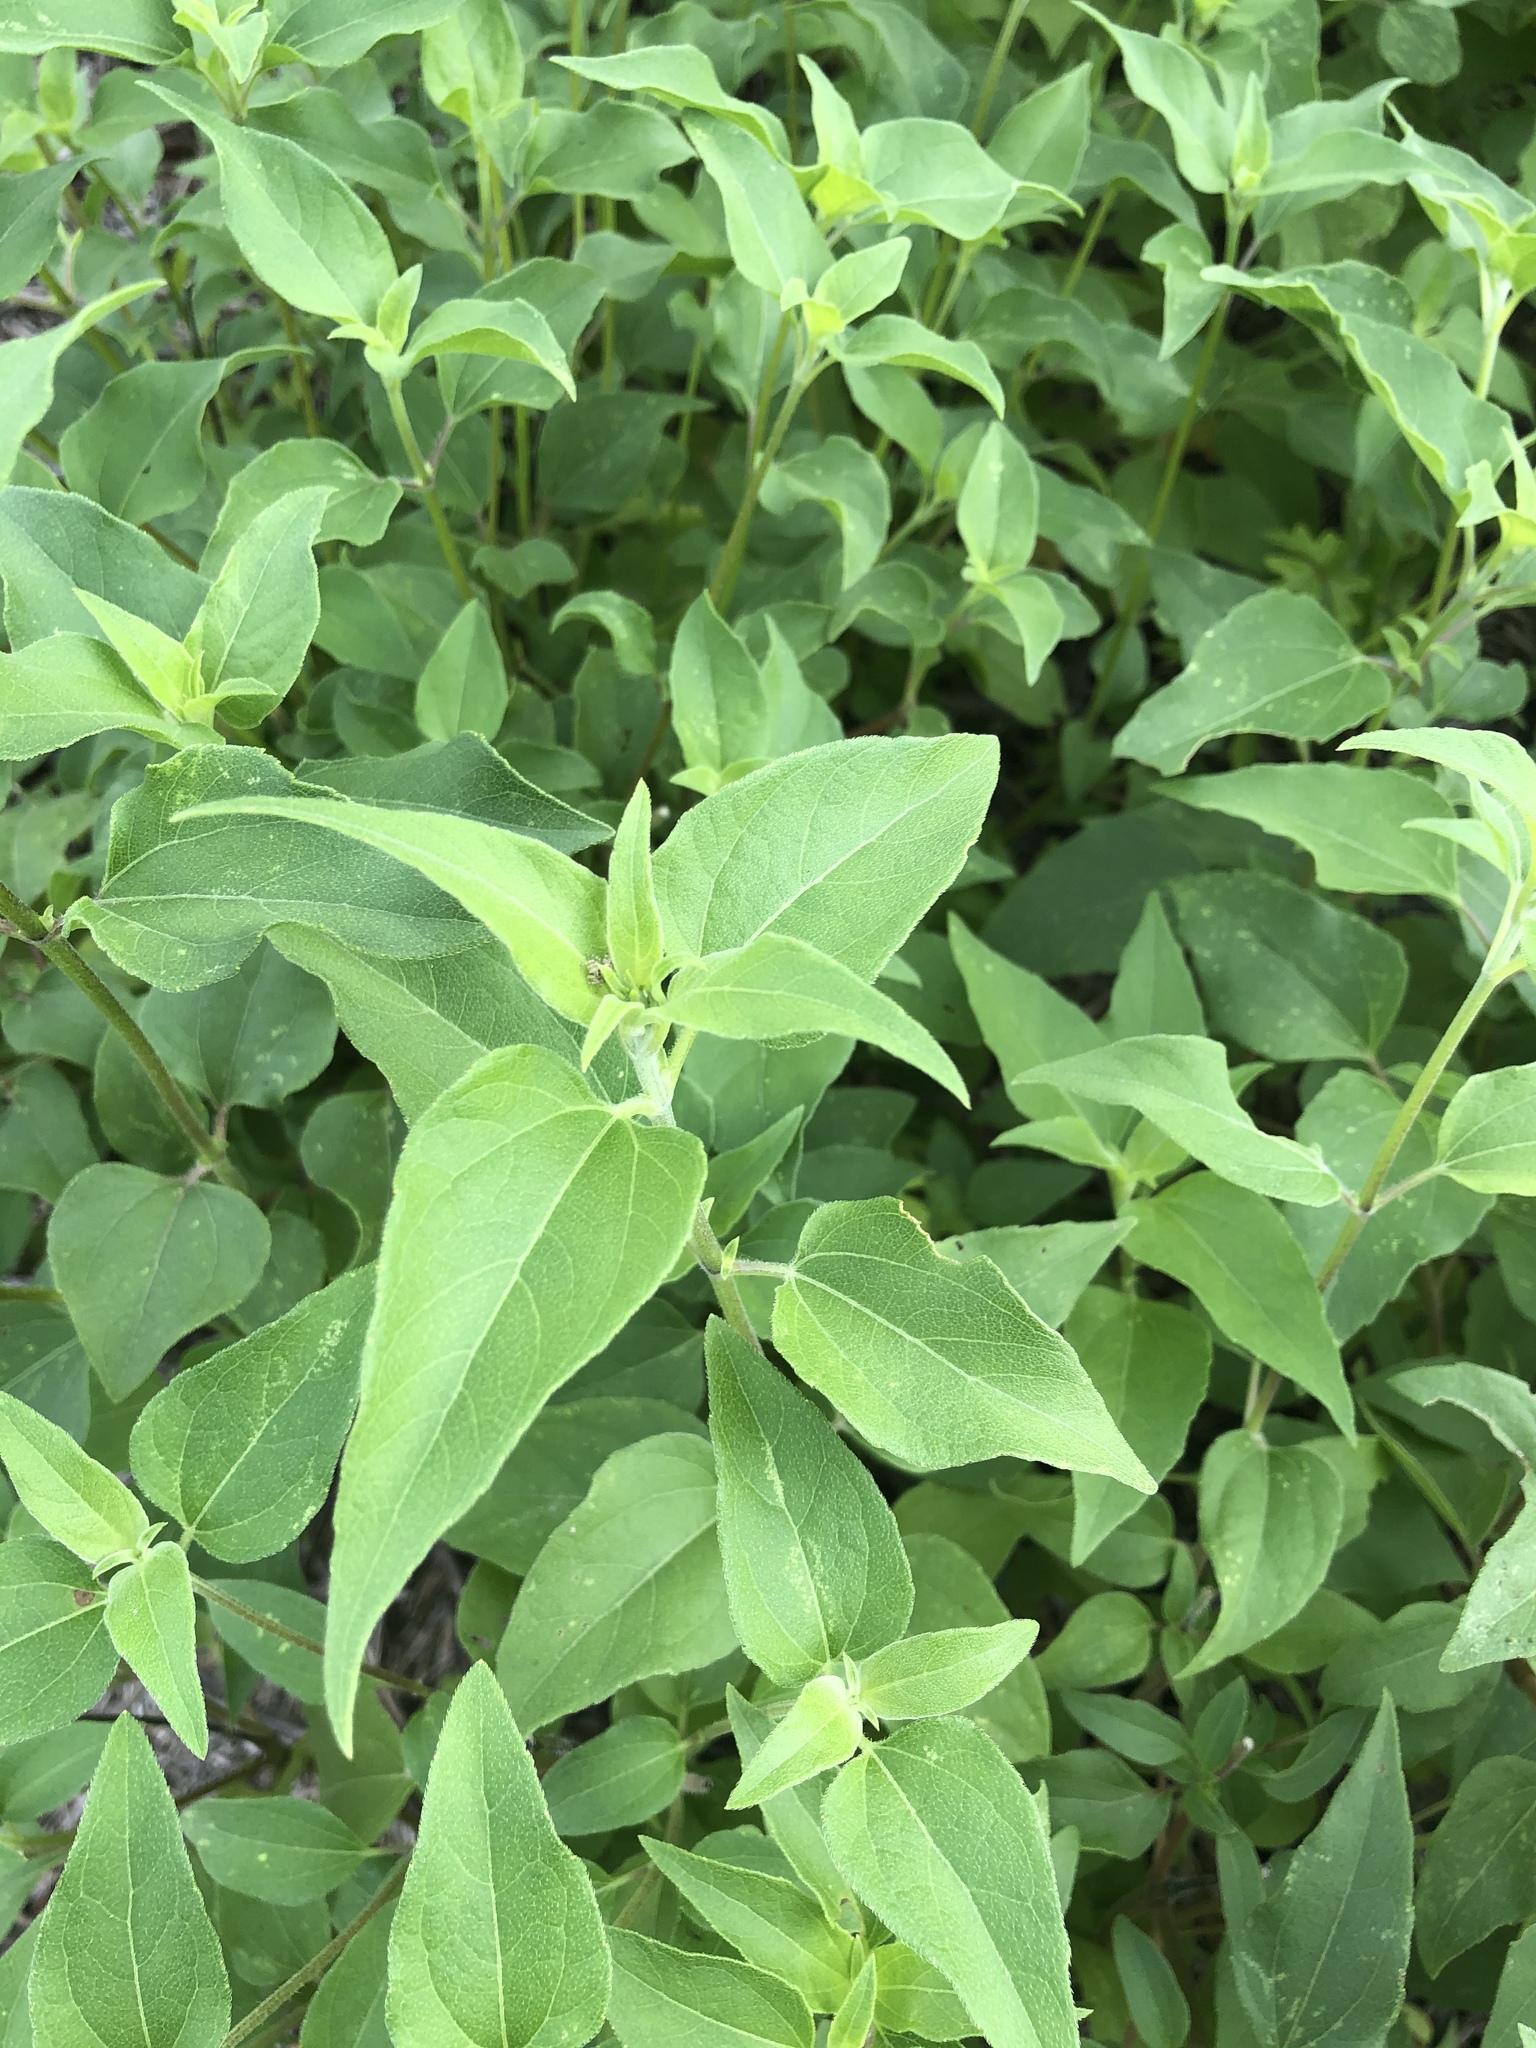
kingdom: Plantae
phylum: Tracheophyta
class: Magnoliopsida
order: Asterales
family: Asteraceae
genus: Viguiera
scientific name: Viguiera dentata
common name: Toothleaf
